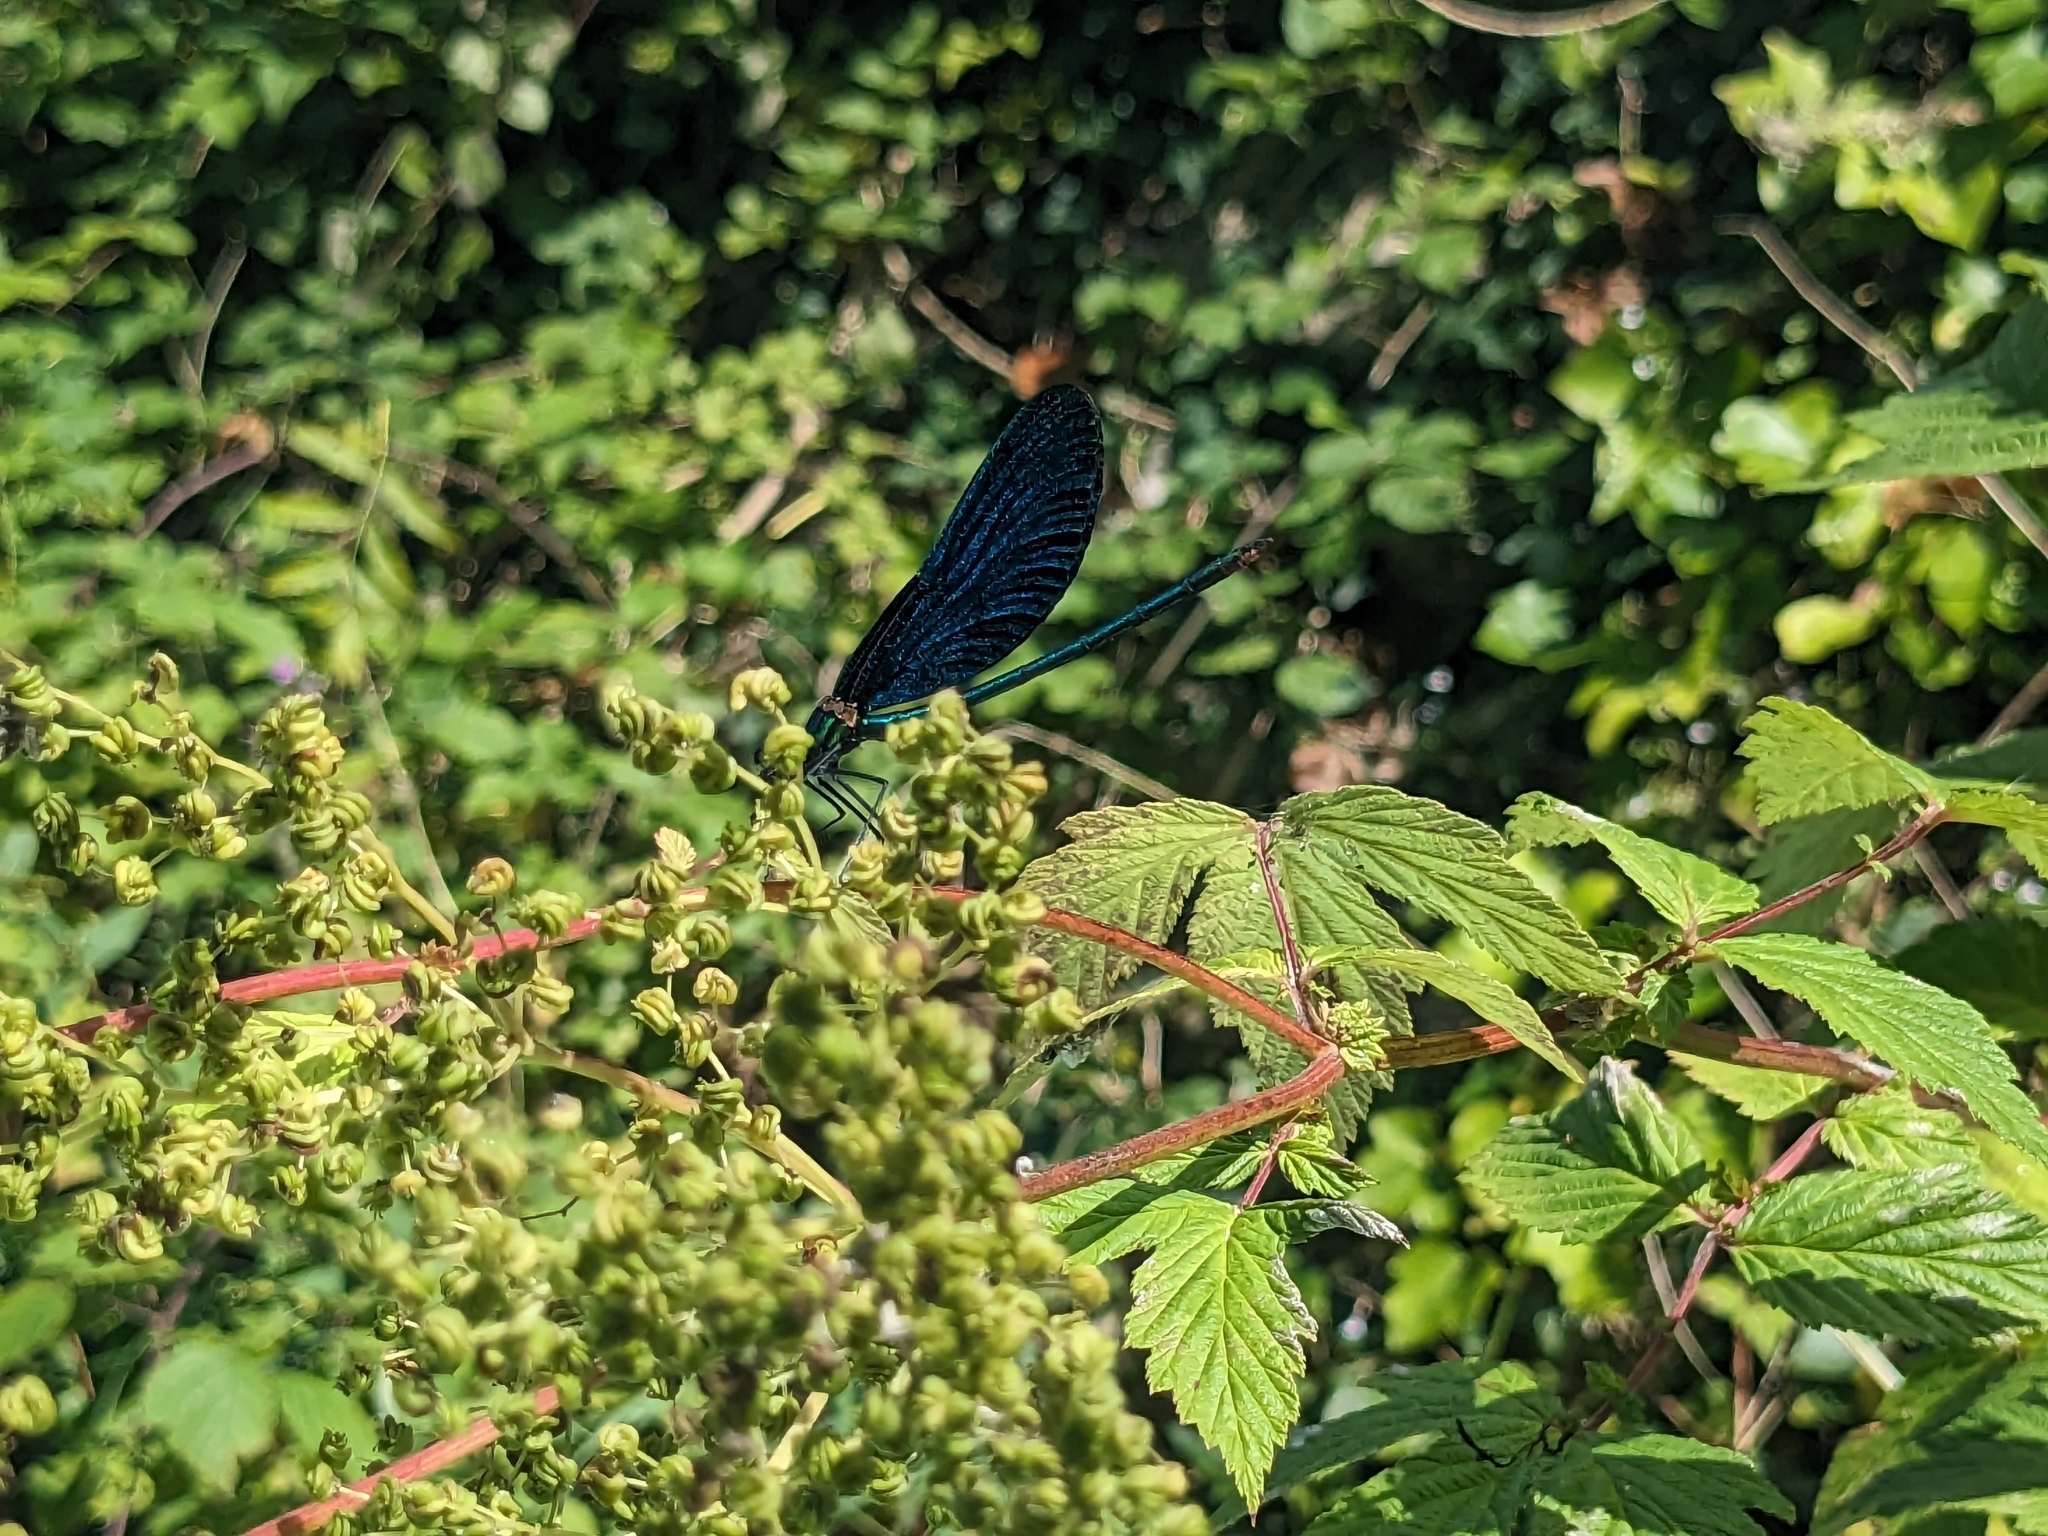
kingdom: Animalia
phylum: Arthropoda
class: Insecta
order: Odonata
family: Calopterygidae
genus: Calopteryx
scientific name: Calopteryx virgo
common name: Beautiful demoiselle
